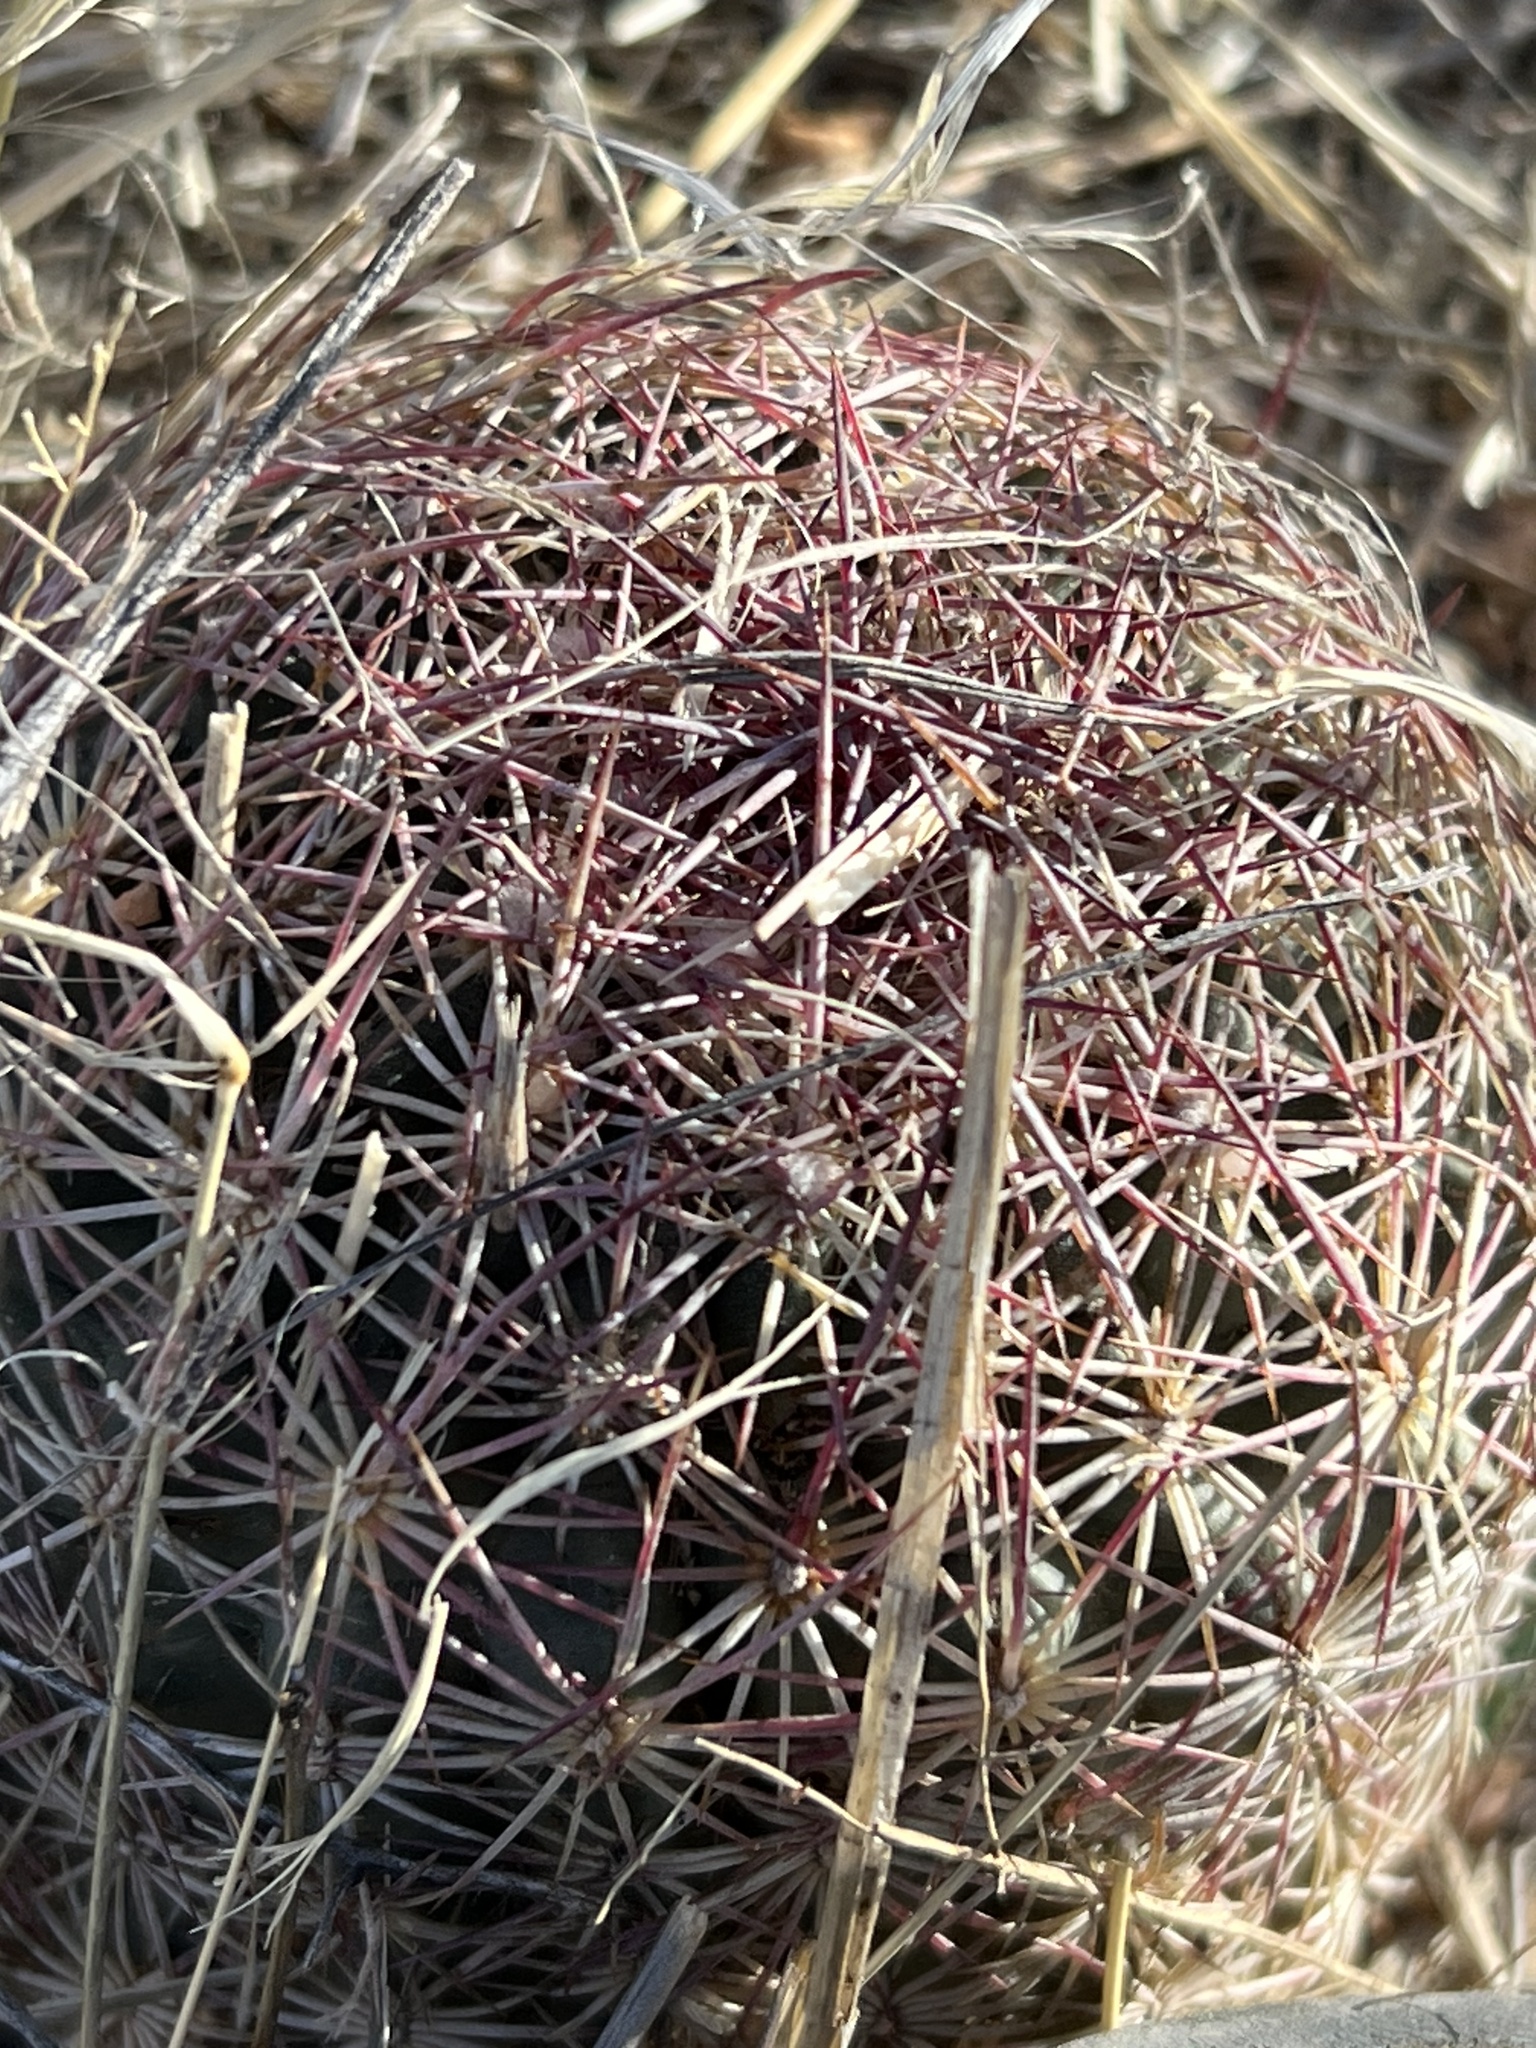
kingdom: Plantae
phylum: Tracheophyta
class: Magnoliopsida
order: Caryophyllales
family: Cactaceae
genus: Sclerocactus
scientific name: Sclerocactus johnsonii
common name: Eight-spine fishhook cactus
